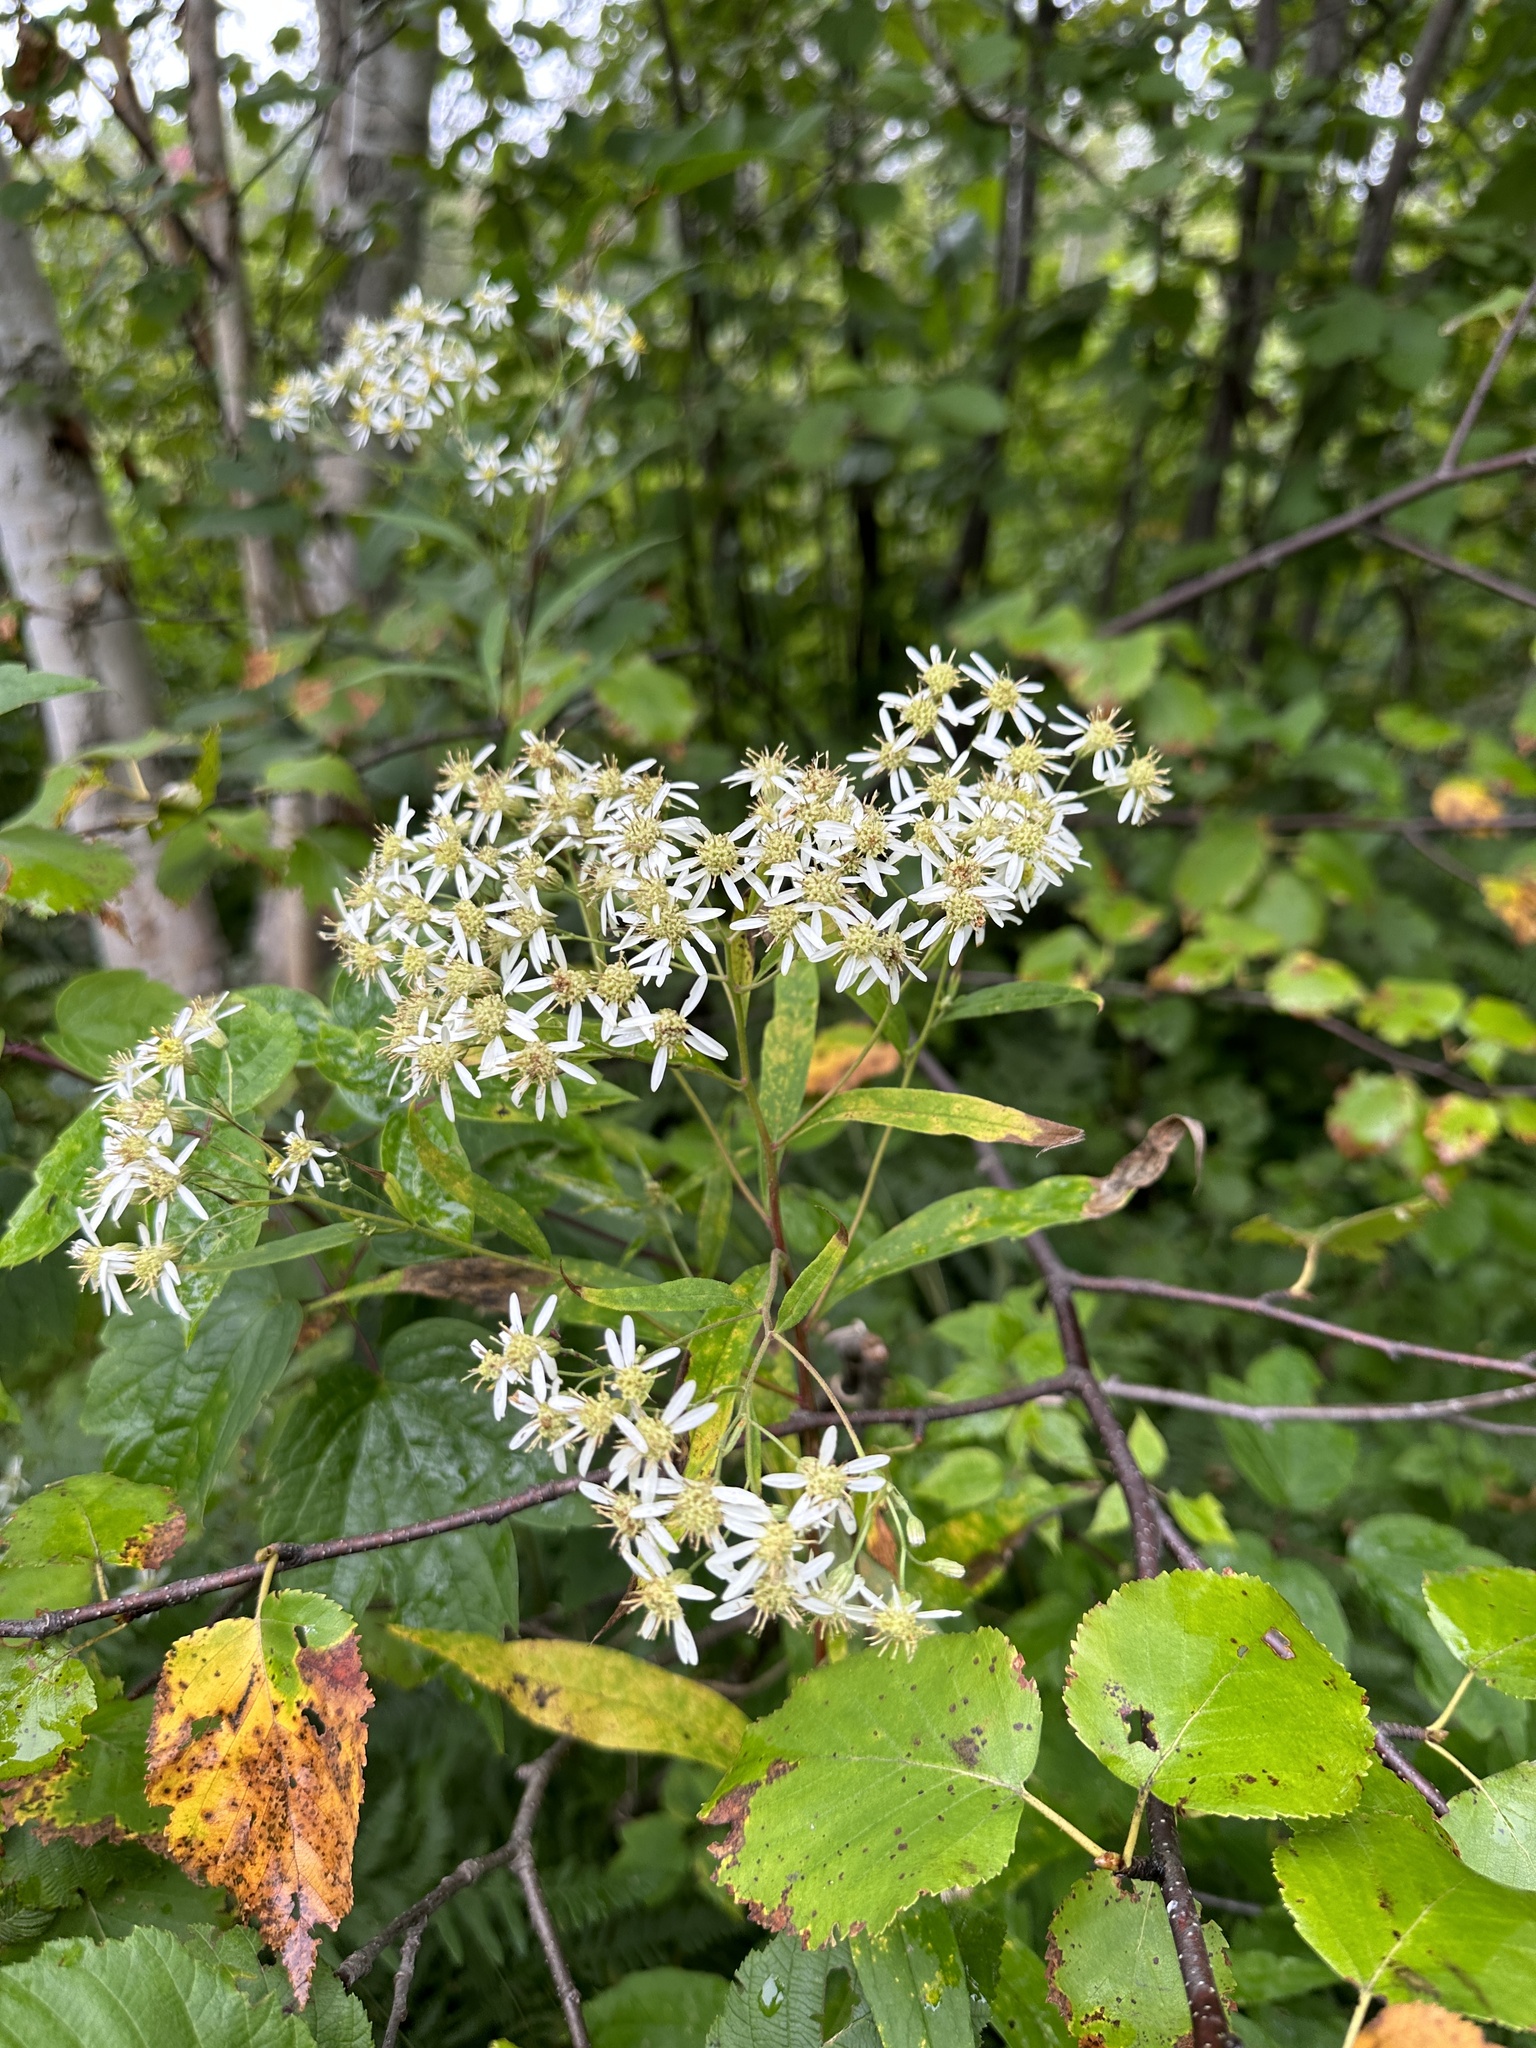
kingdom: Plantae
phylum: Tracheophyta
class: Magnoliopsida
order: Asterales
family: Asteraceae
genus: Doellingeria
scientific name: Doellingeria umbellata
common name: Flat-top white aster
